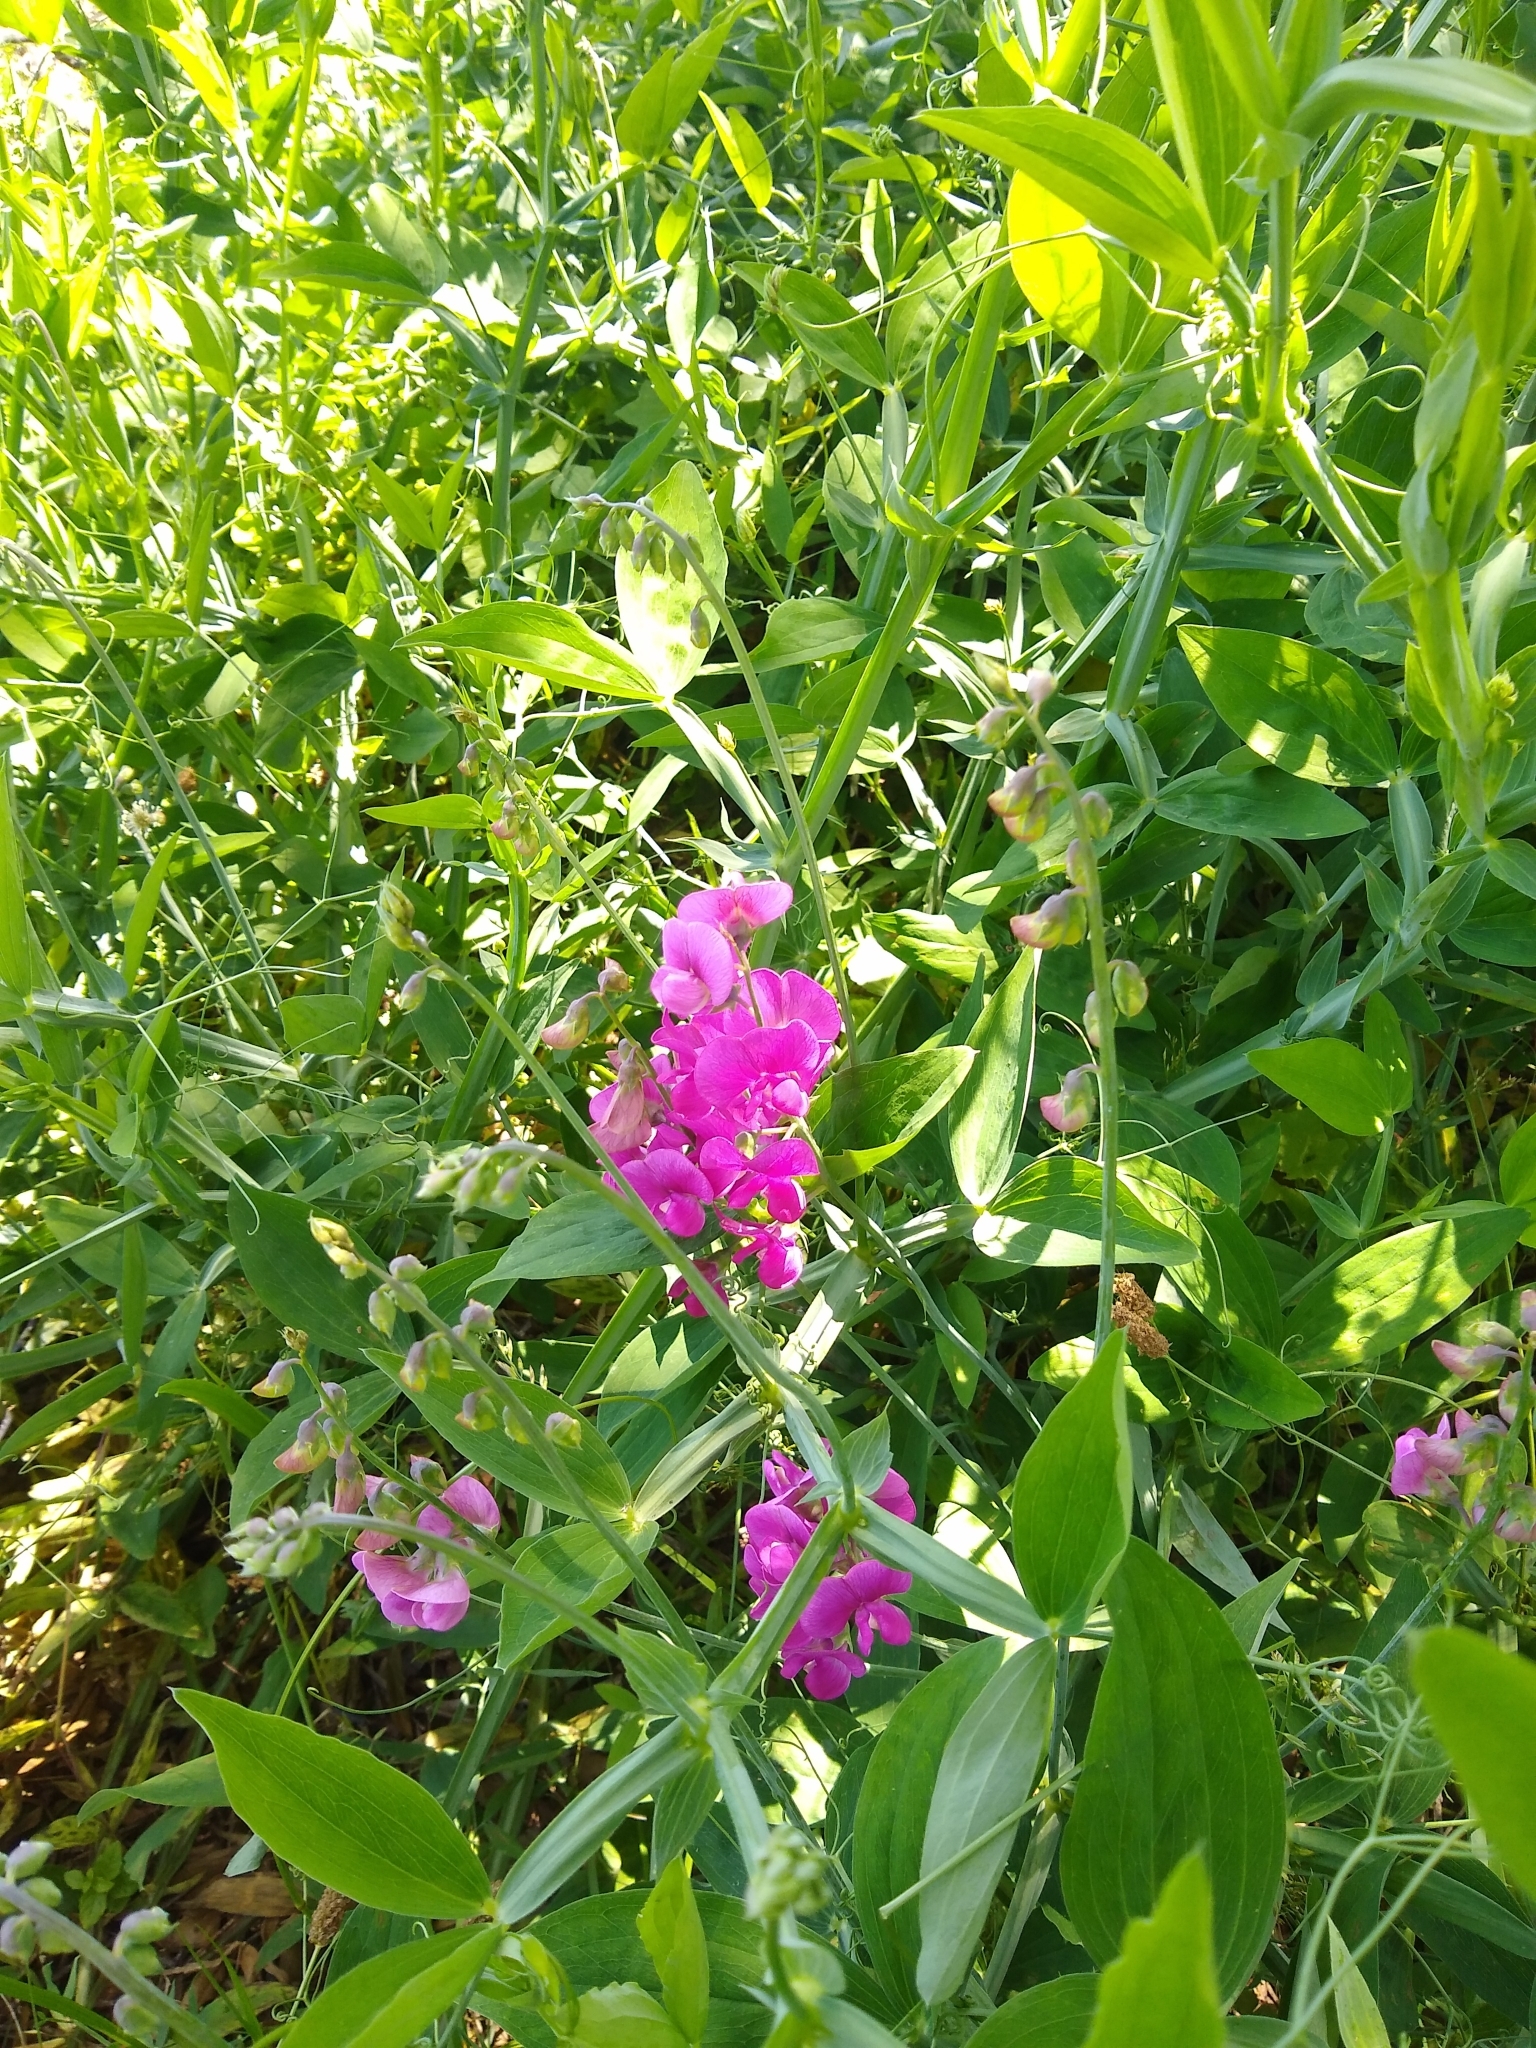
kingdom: Plantae
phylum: Tracheophyta
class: Magnoliopsida
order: Fabales
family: Fabaceae
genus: Lathyrus
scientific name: Lathyrus latifolius
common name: Perennial pea
